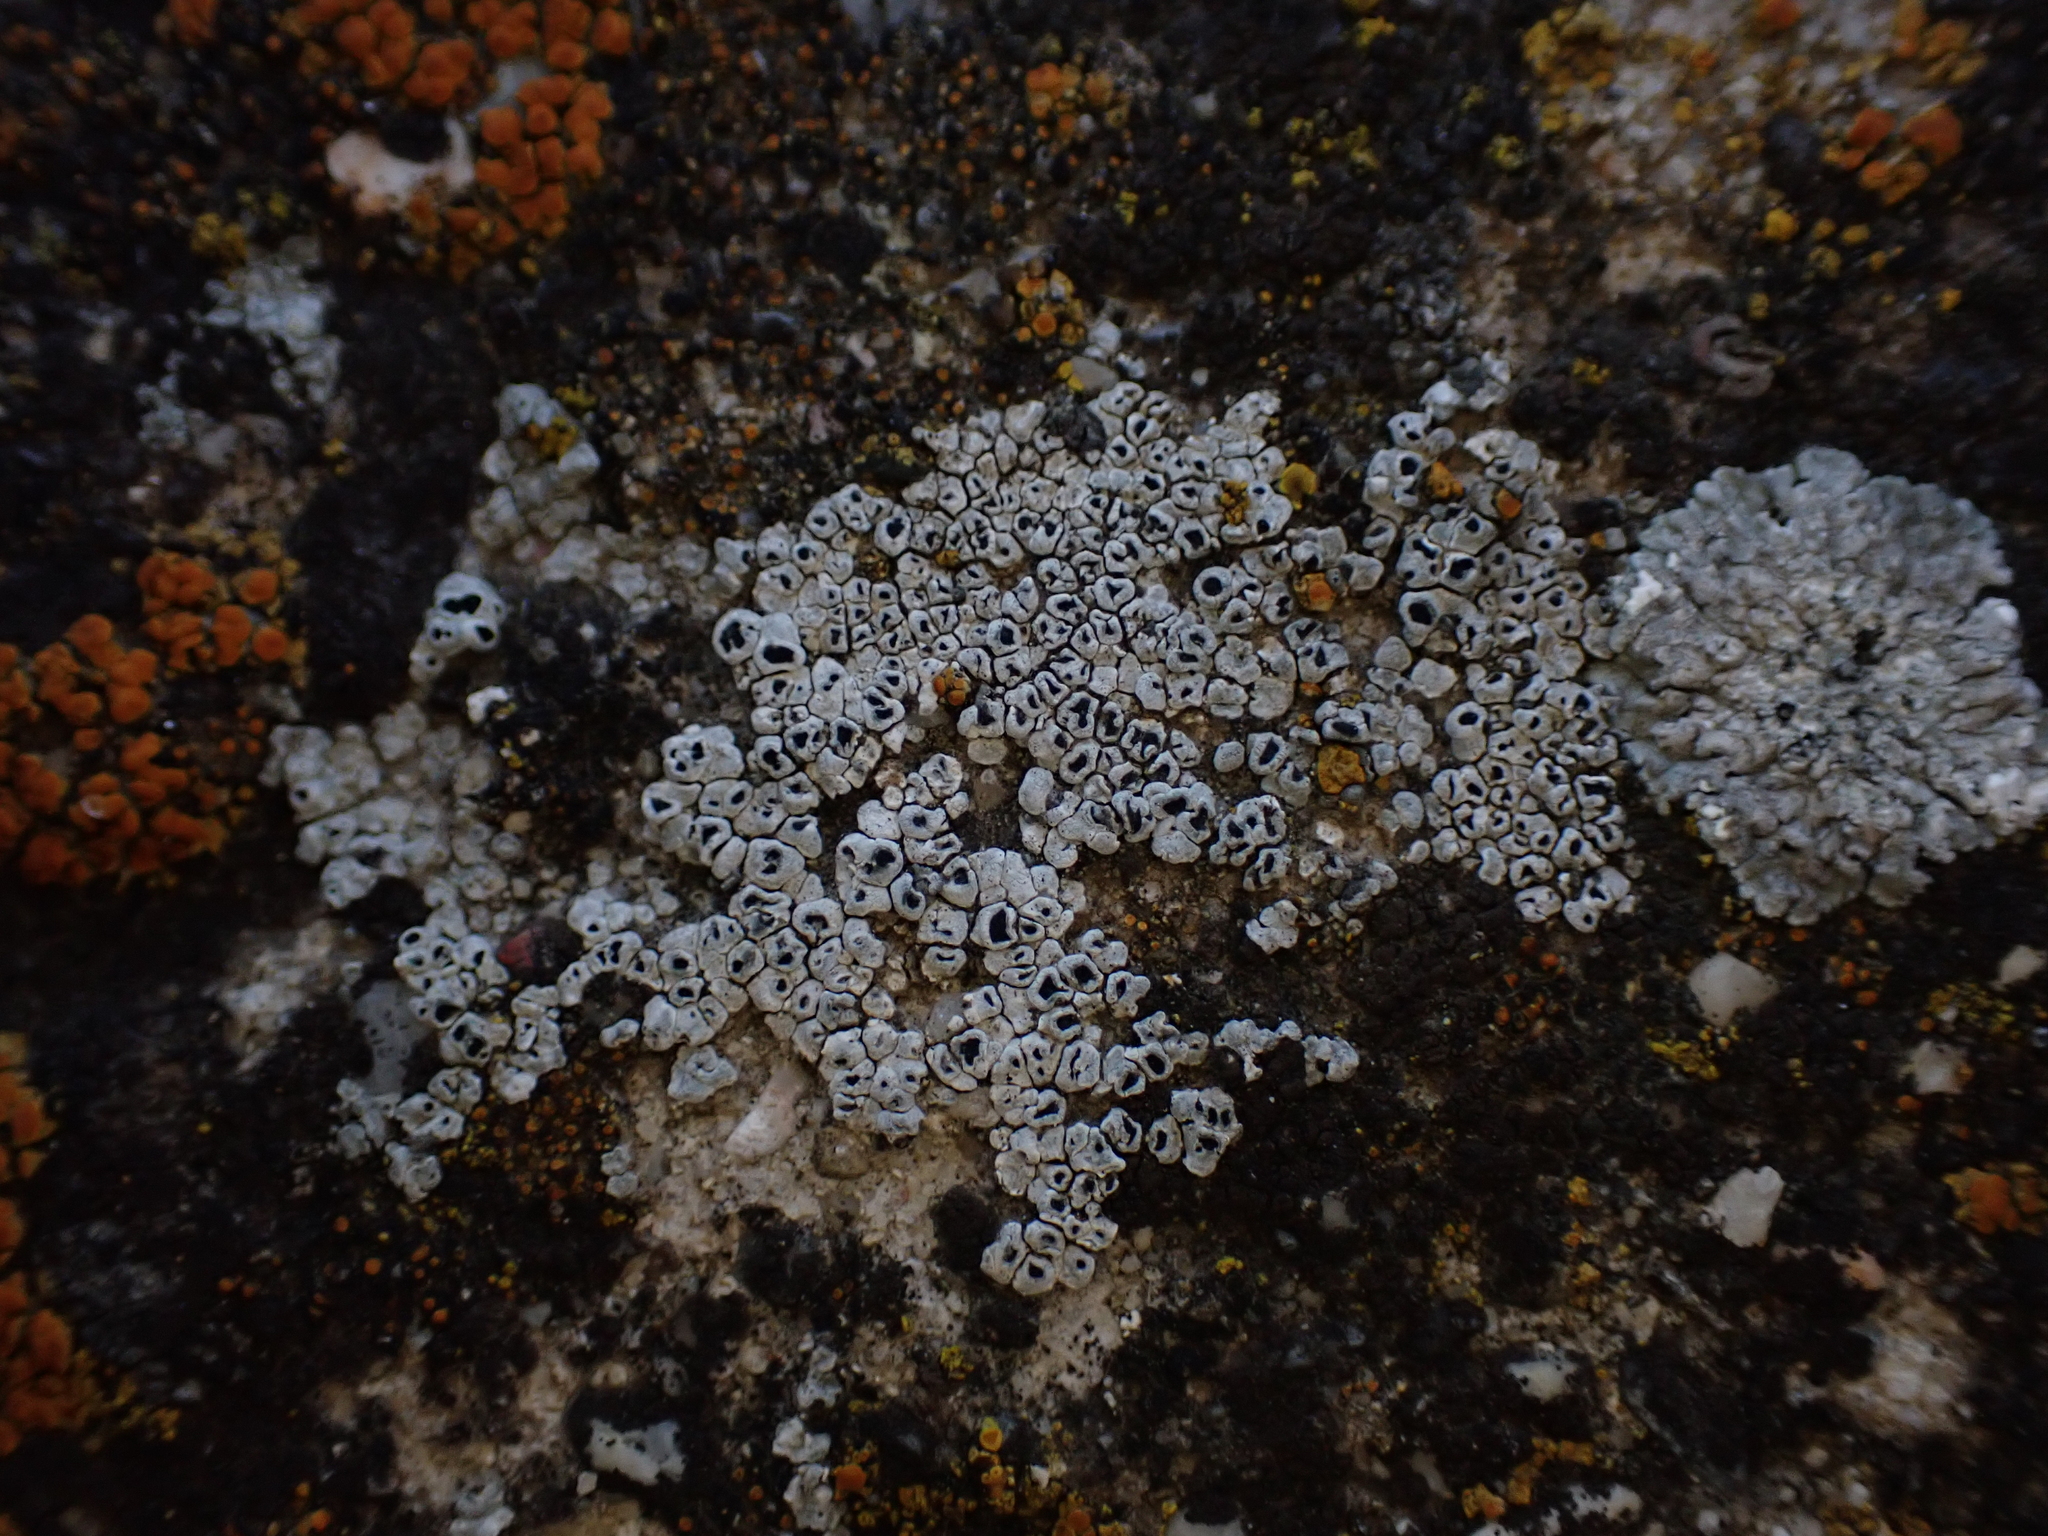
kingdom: Fungi
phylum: Ascomycota
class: Lecanoromycetes
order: Pertusariales
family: Megasporaceae
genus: Circinaria
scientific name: Circinaria contorta
